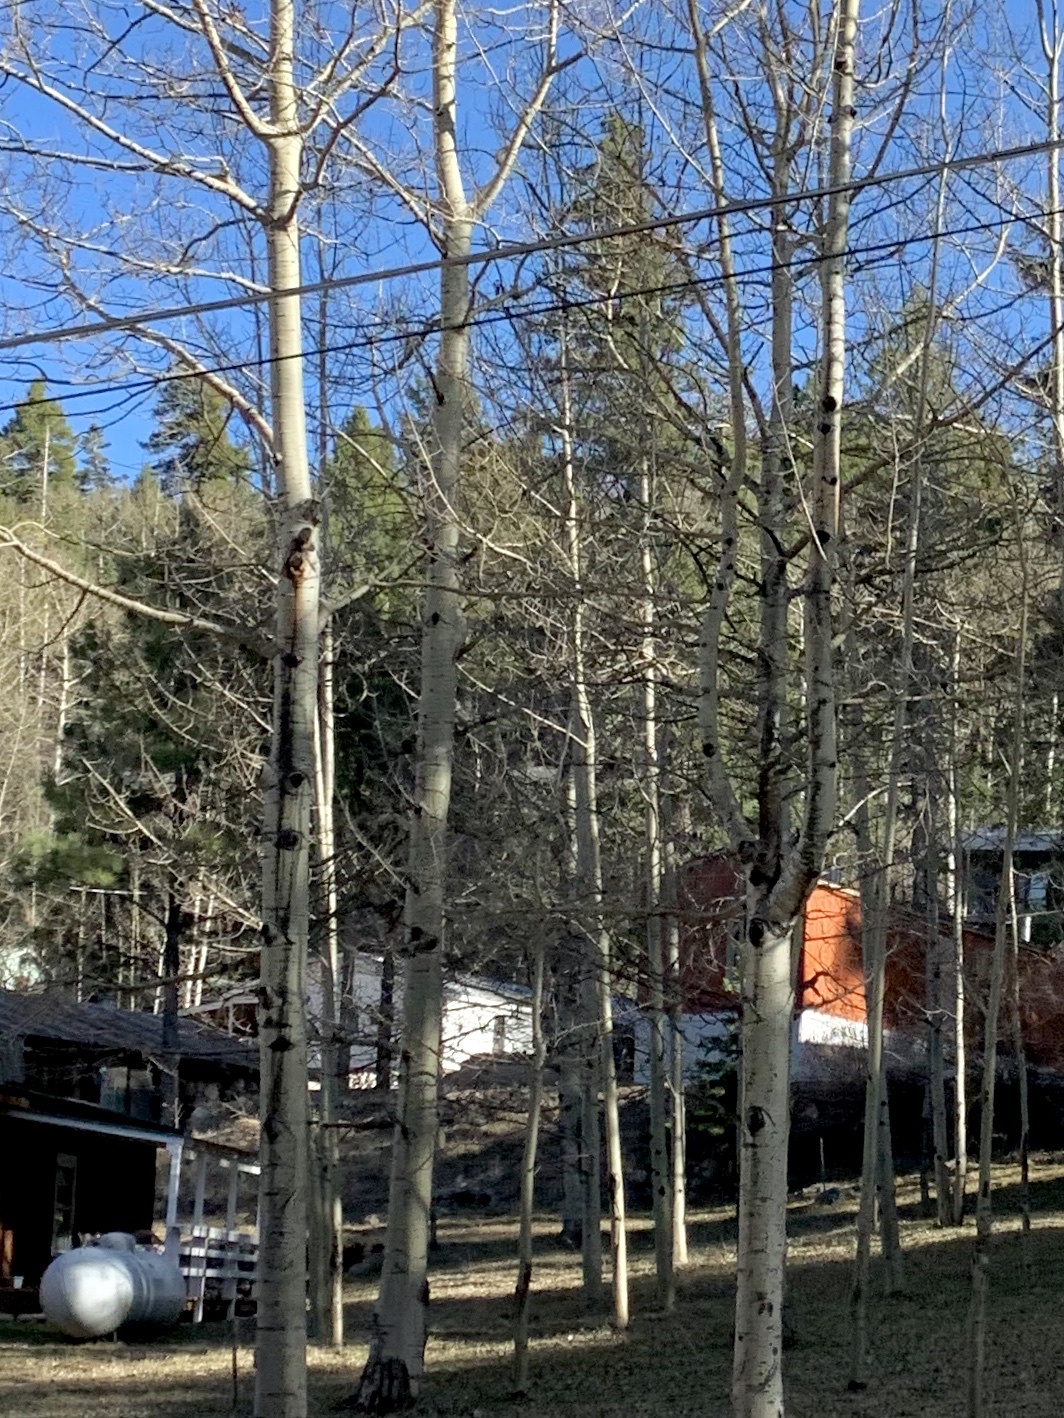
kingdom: Plantae
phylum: Tracheophyta
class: Magnoliopsida
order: Malpighiales
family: Salicaceae
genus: Populus
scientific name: Populus tremuloides
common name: Quaking aspen
